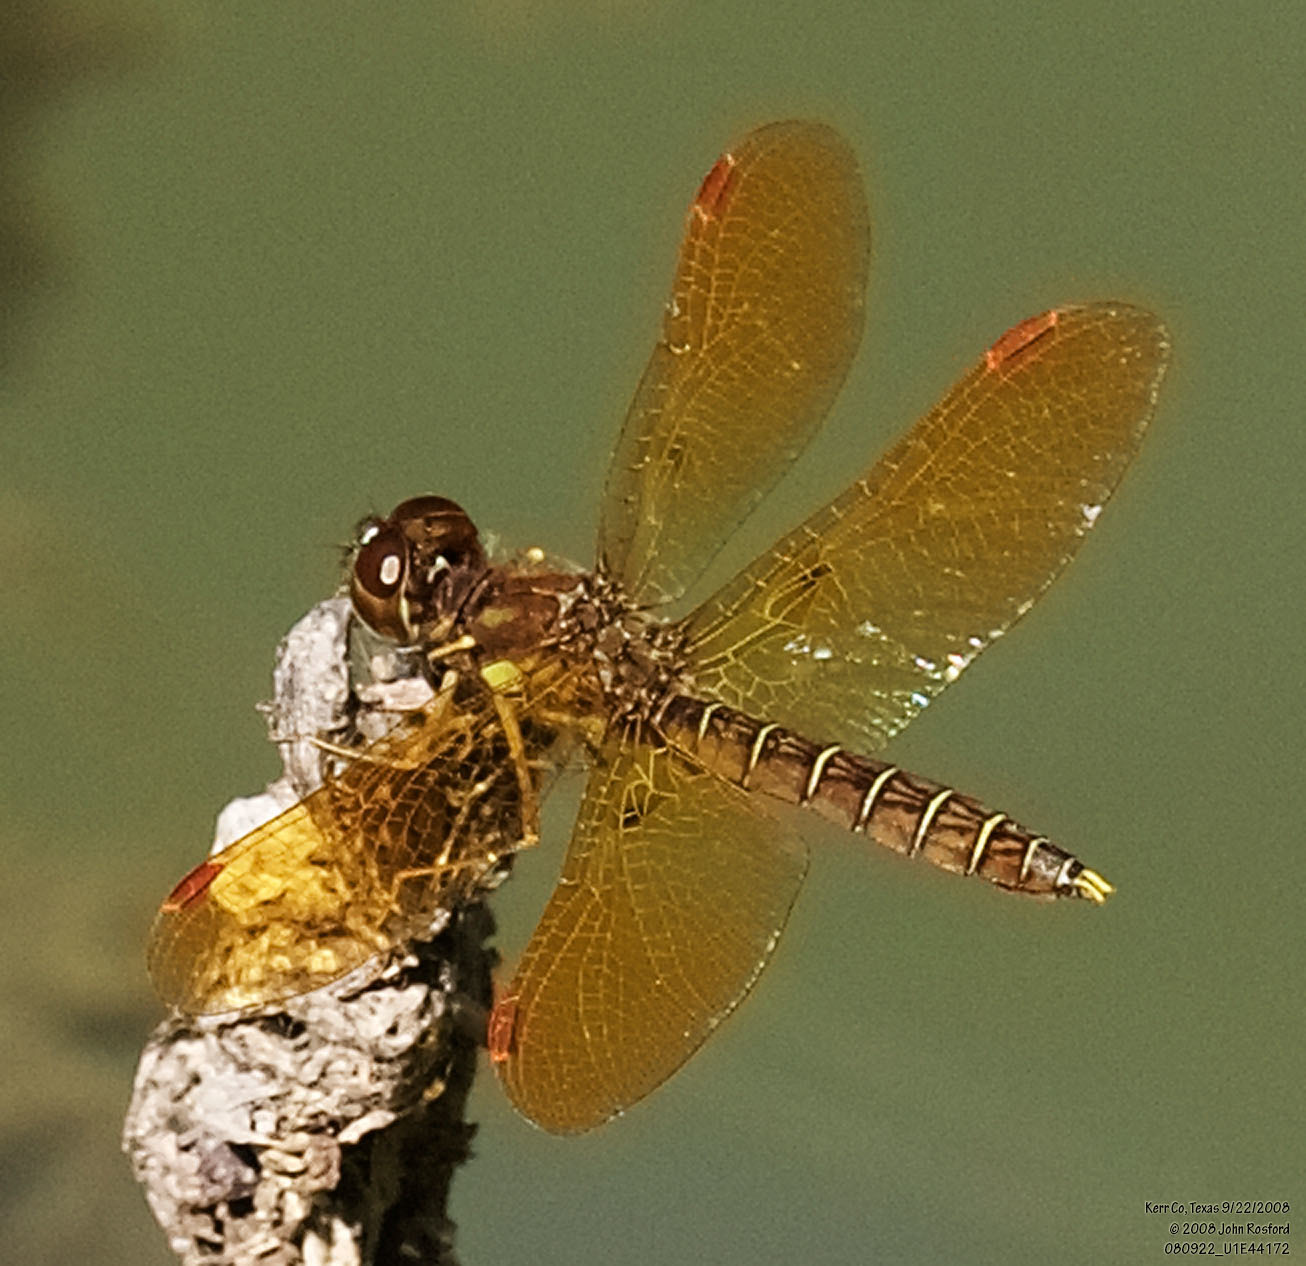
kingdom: Animalia
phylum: Arthropoda
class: Insecta
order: Odonata
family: Libellulidae
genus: Perithemis
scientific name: Perithemis tenera
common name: Eastern amberwing
